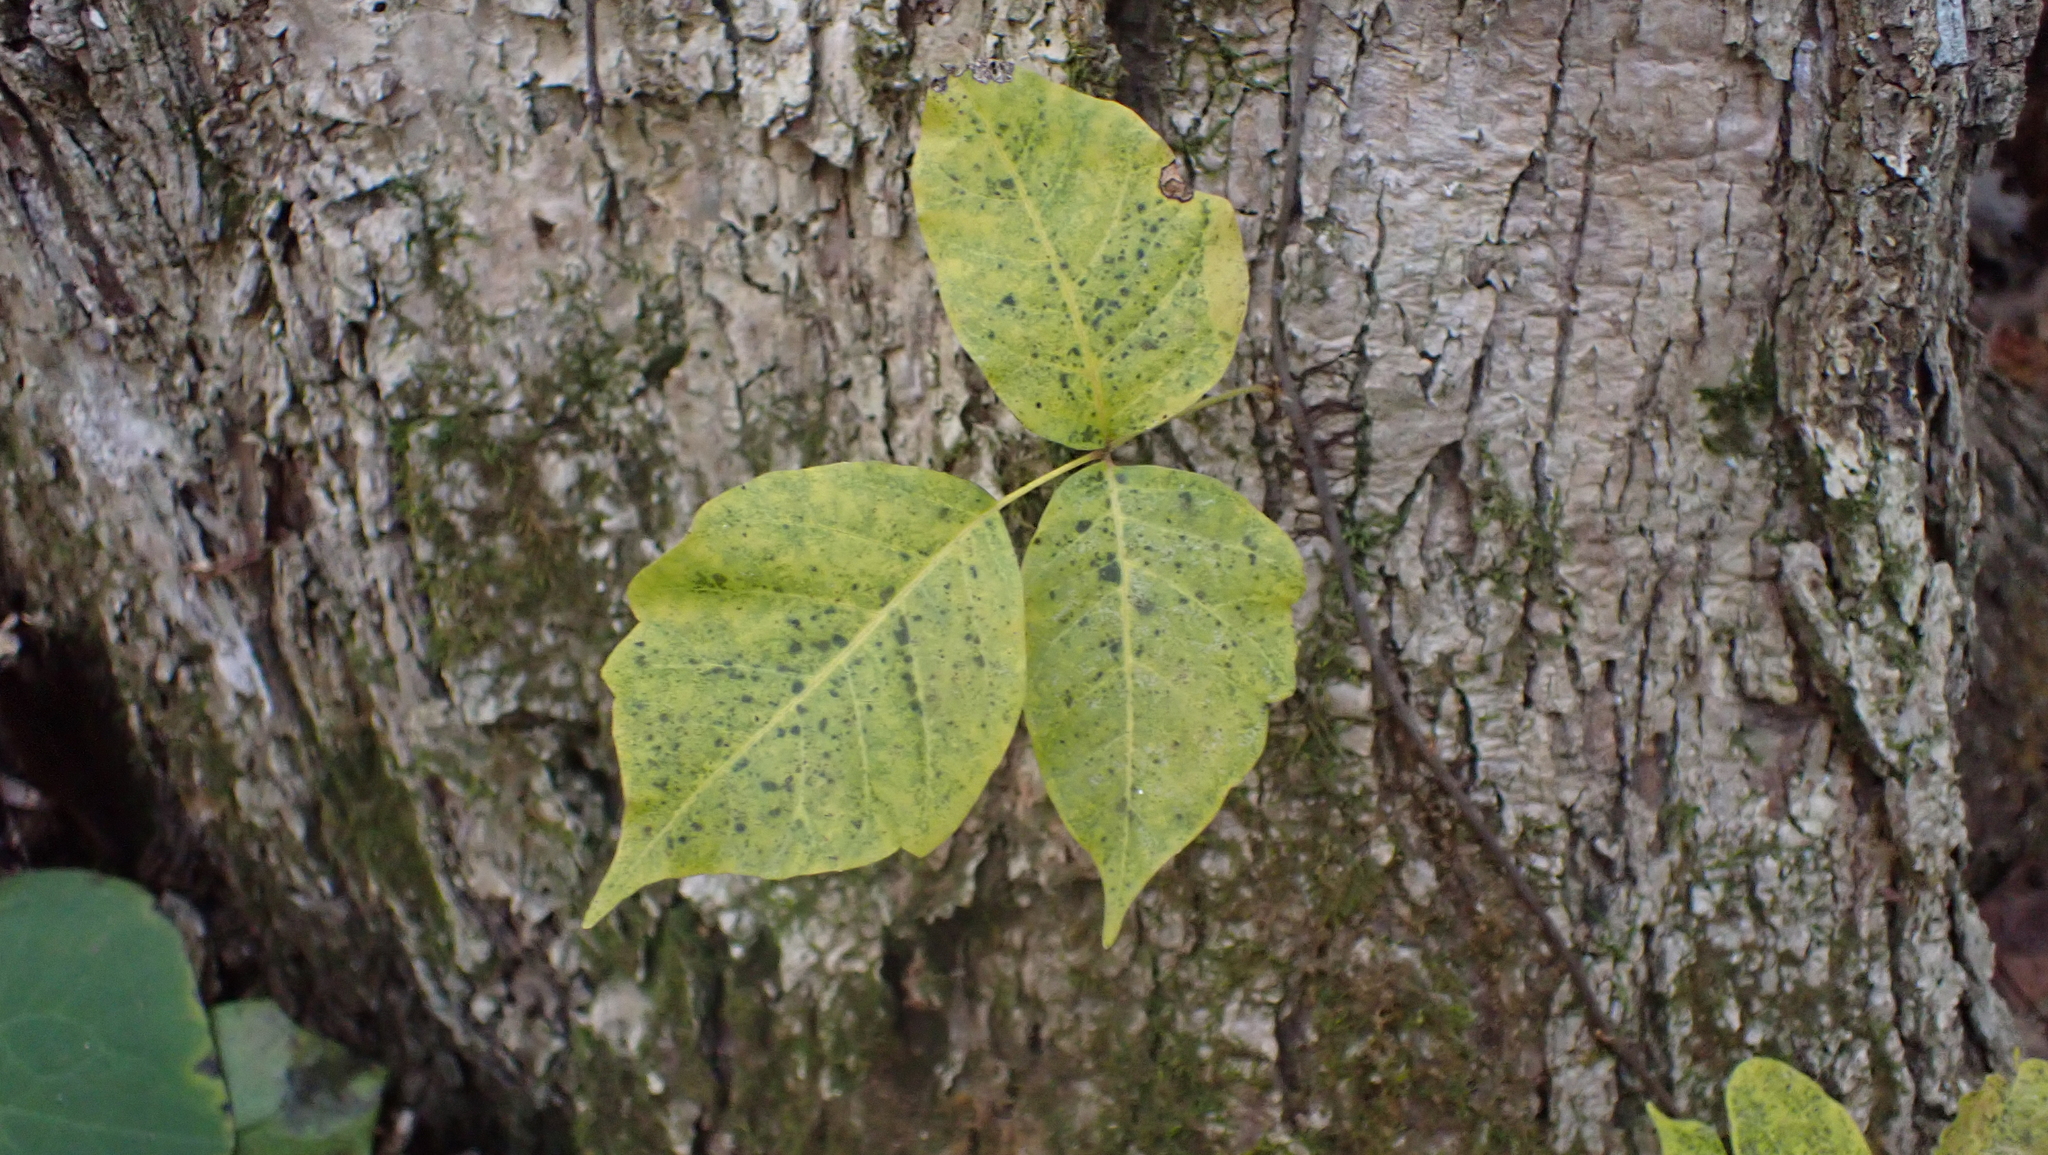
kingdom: Plantae
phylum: Tracheophyta
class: Magnoliopsida
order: Sapindales
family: Anacardiaceae
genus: Toxicodendron
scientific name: Toxicodendron radicans
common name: Poison ivy
